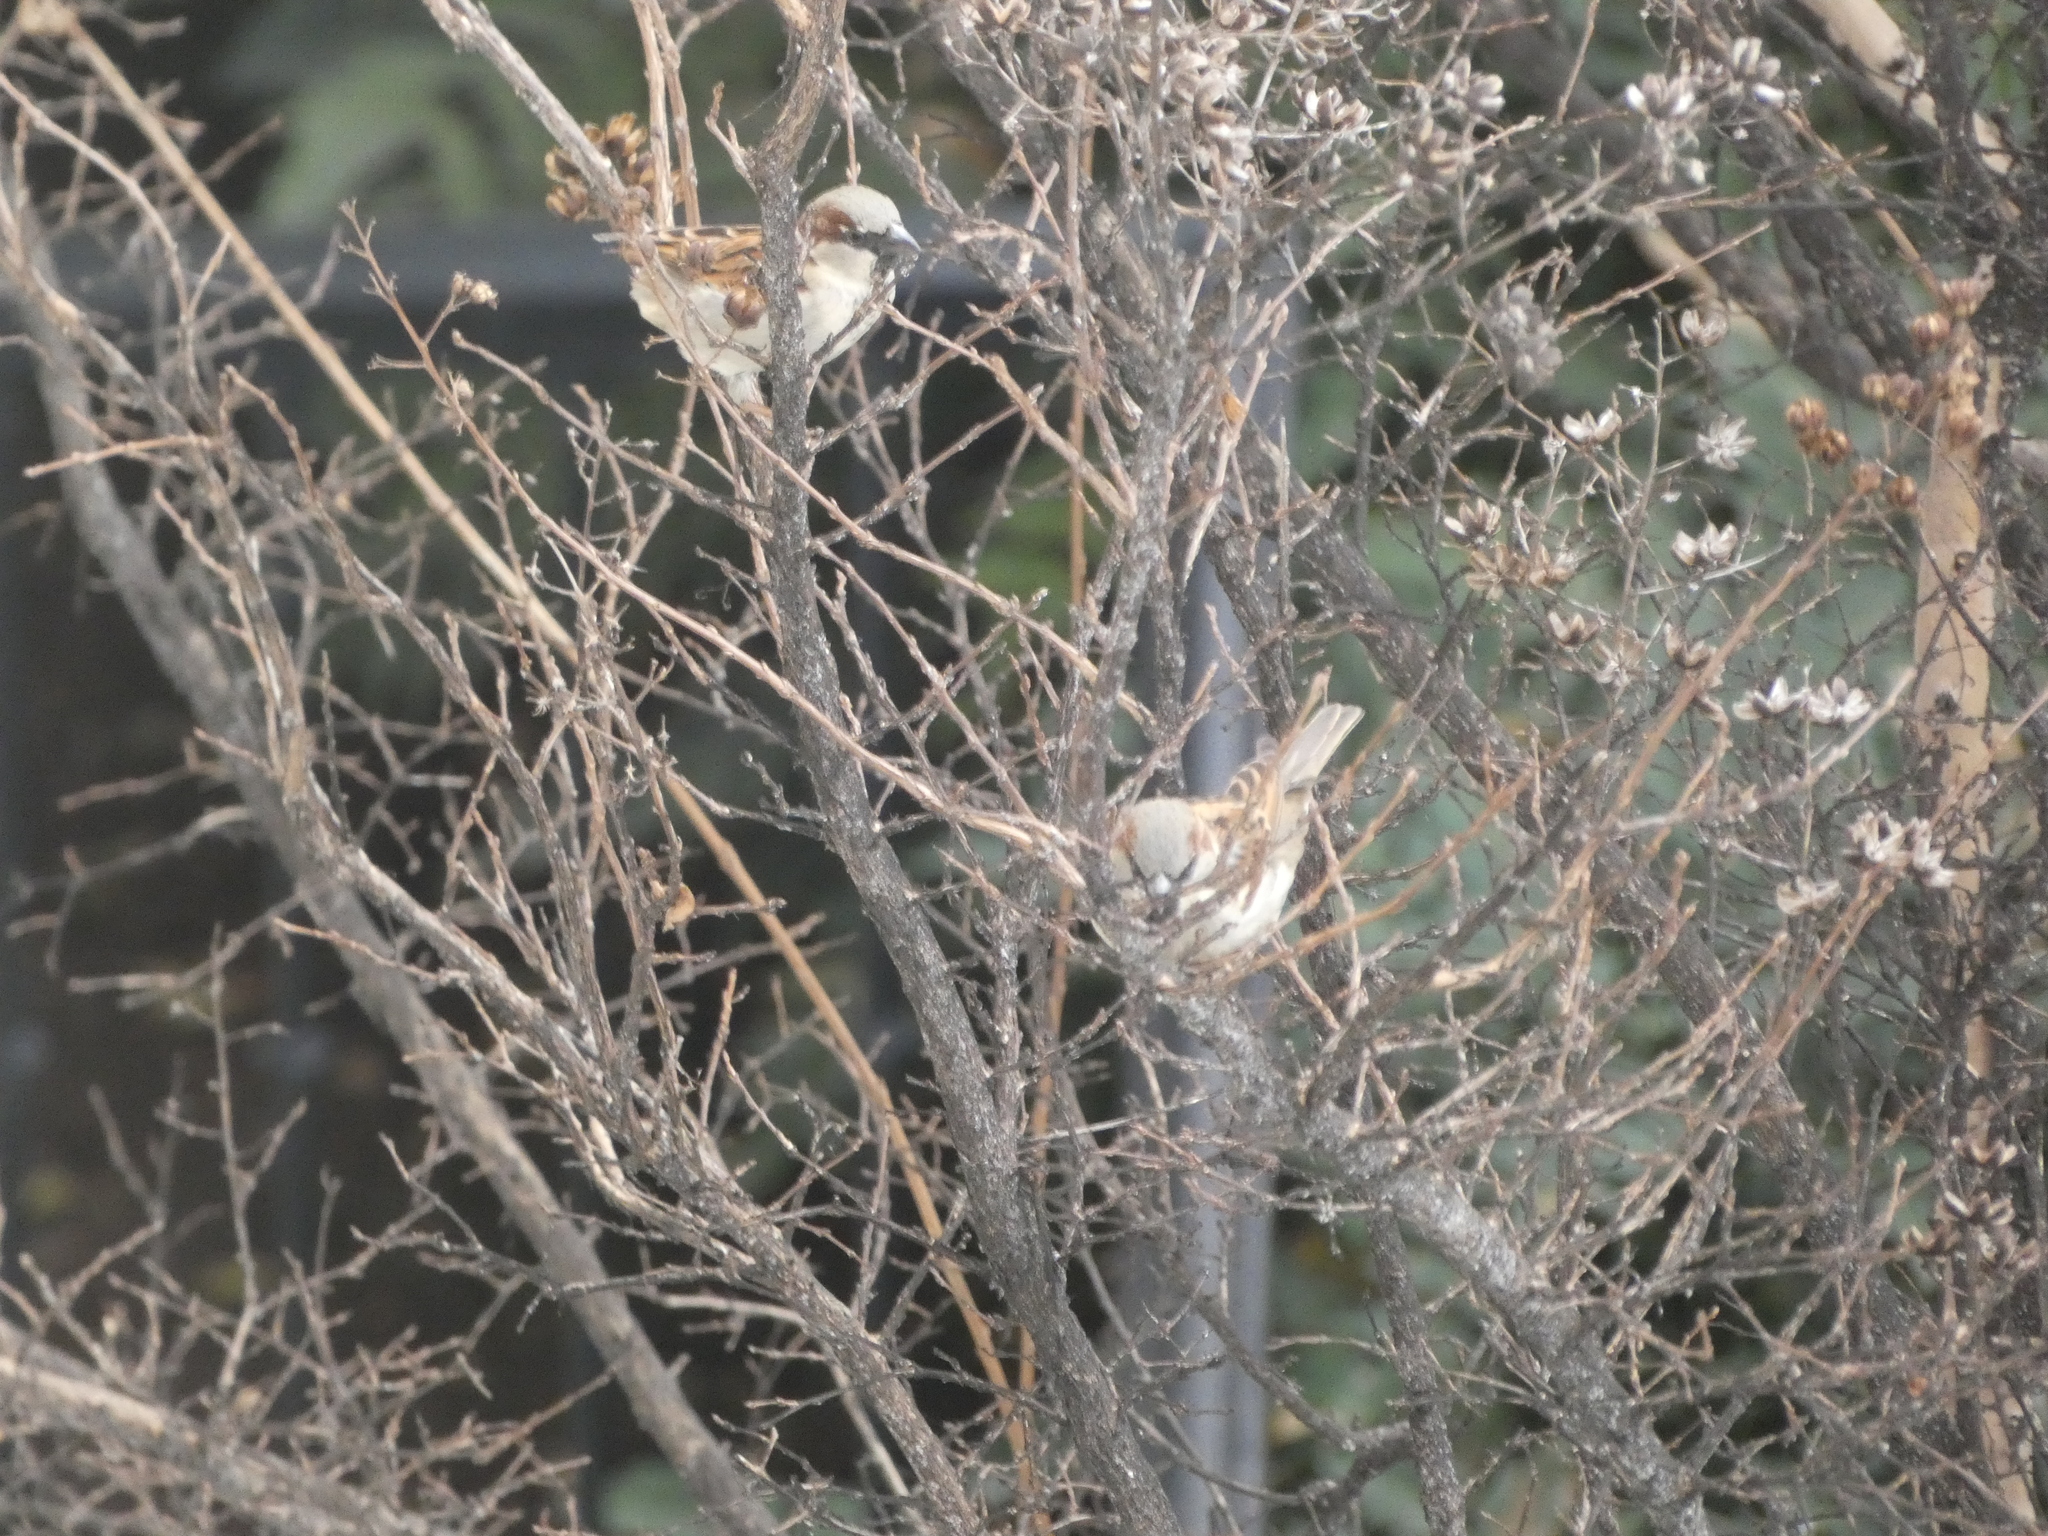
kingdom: Animalia
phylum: Chordata
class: Aves
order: Passeriformes
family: Passeridae
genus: Passer
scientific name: Passer domesticus
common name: House sparrow
